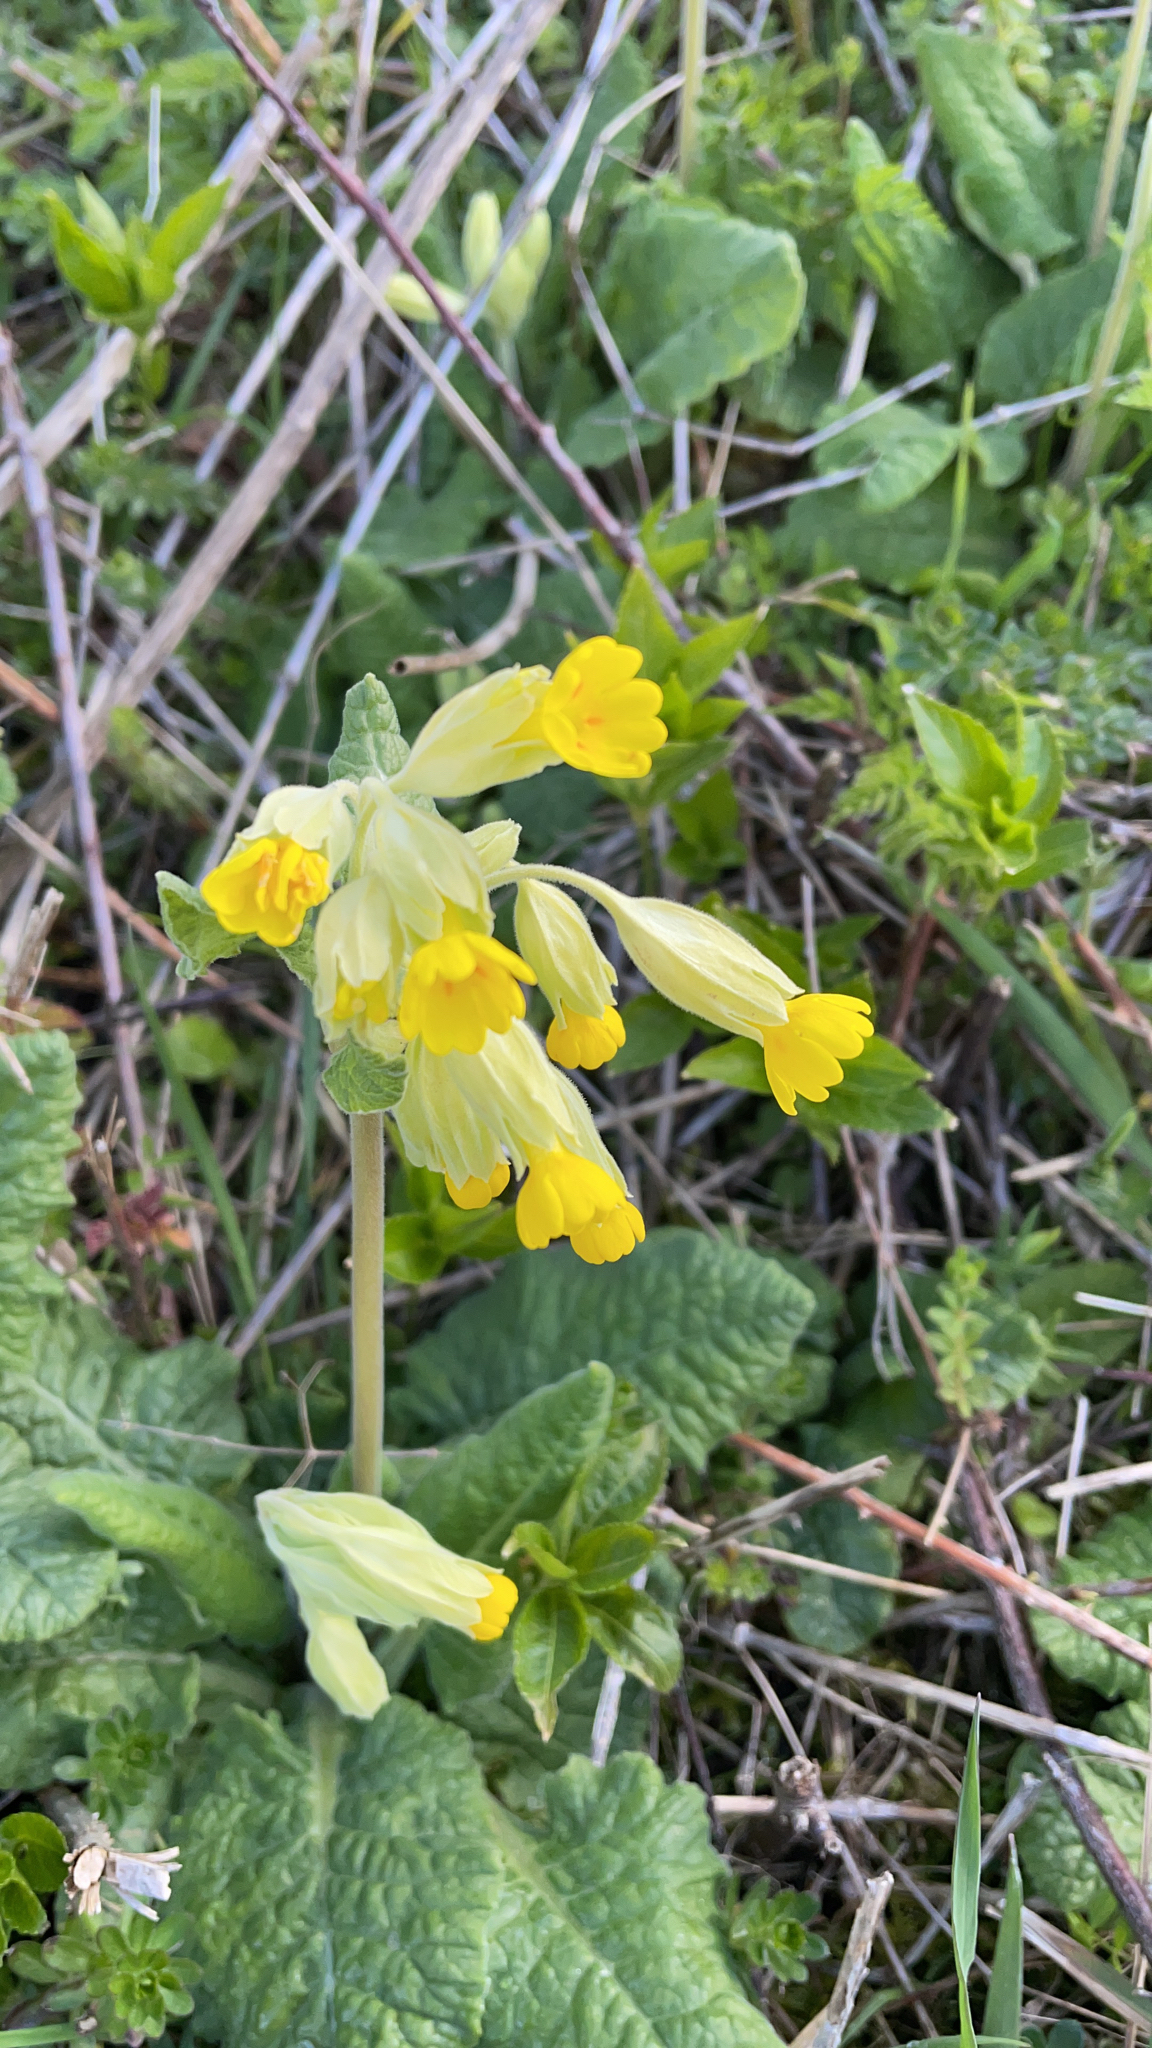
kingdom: Plantae
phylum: Tracheophyta
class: Magnoliopsida
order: Ericales
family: Primulaceae
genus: Primula
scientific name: Primula veris
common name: Cowslip
